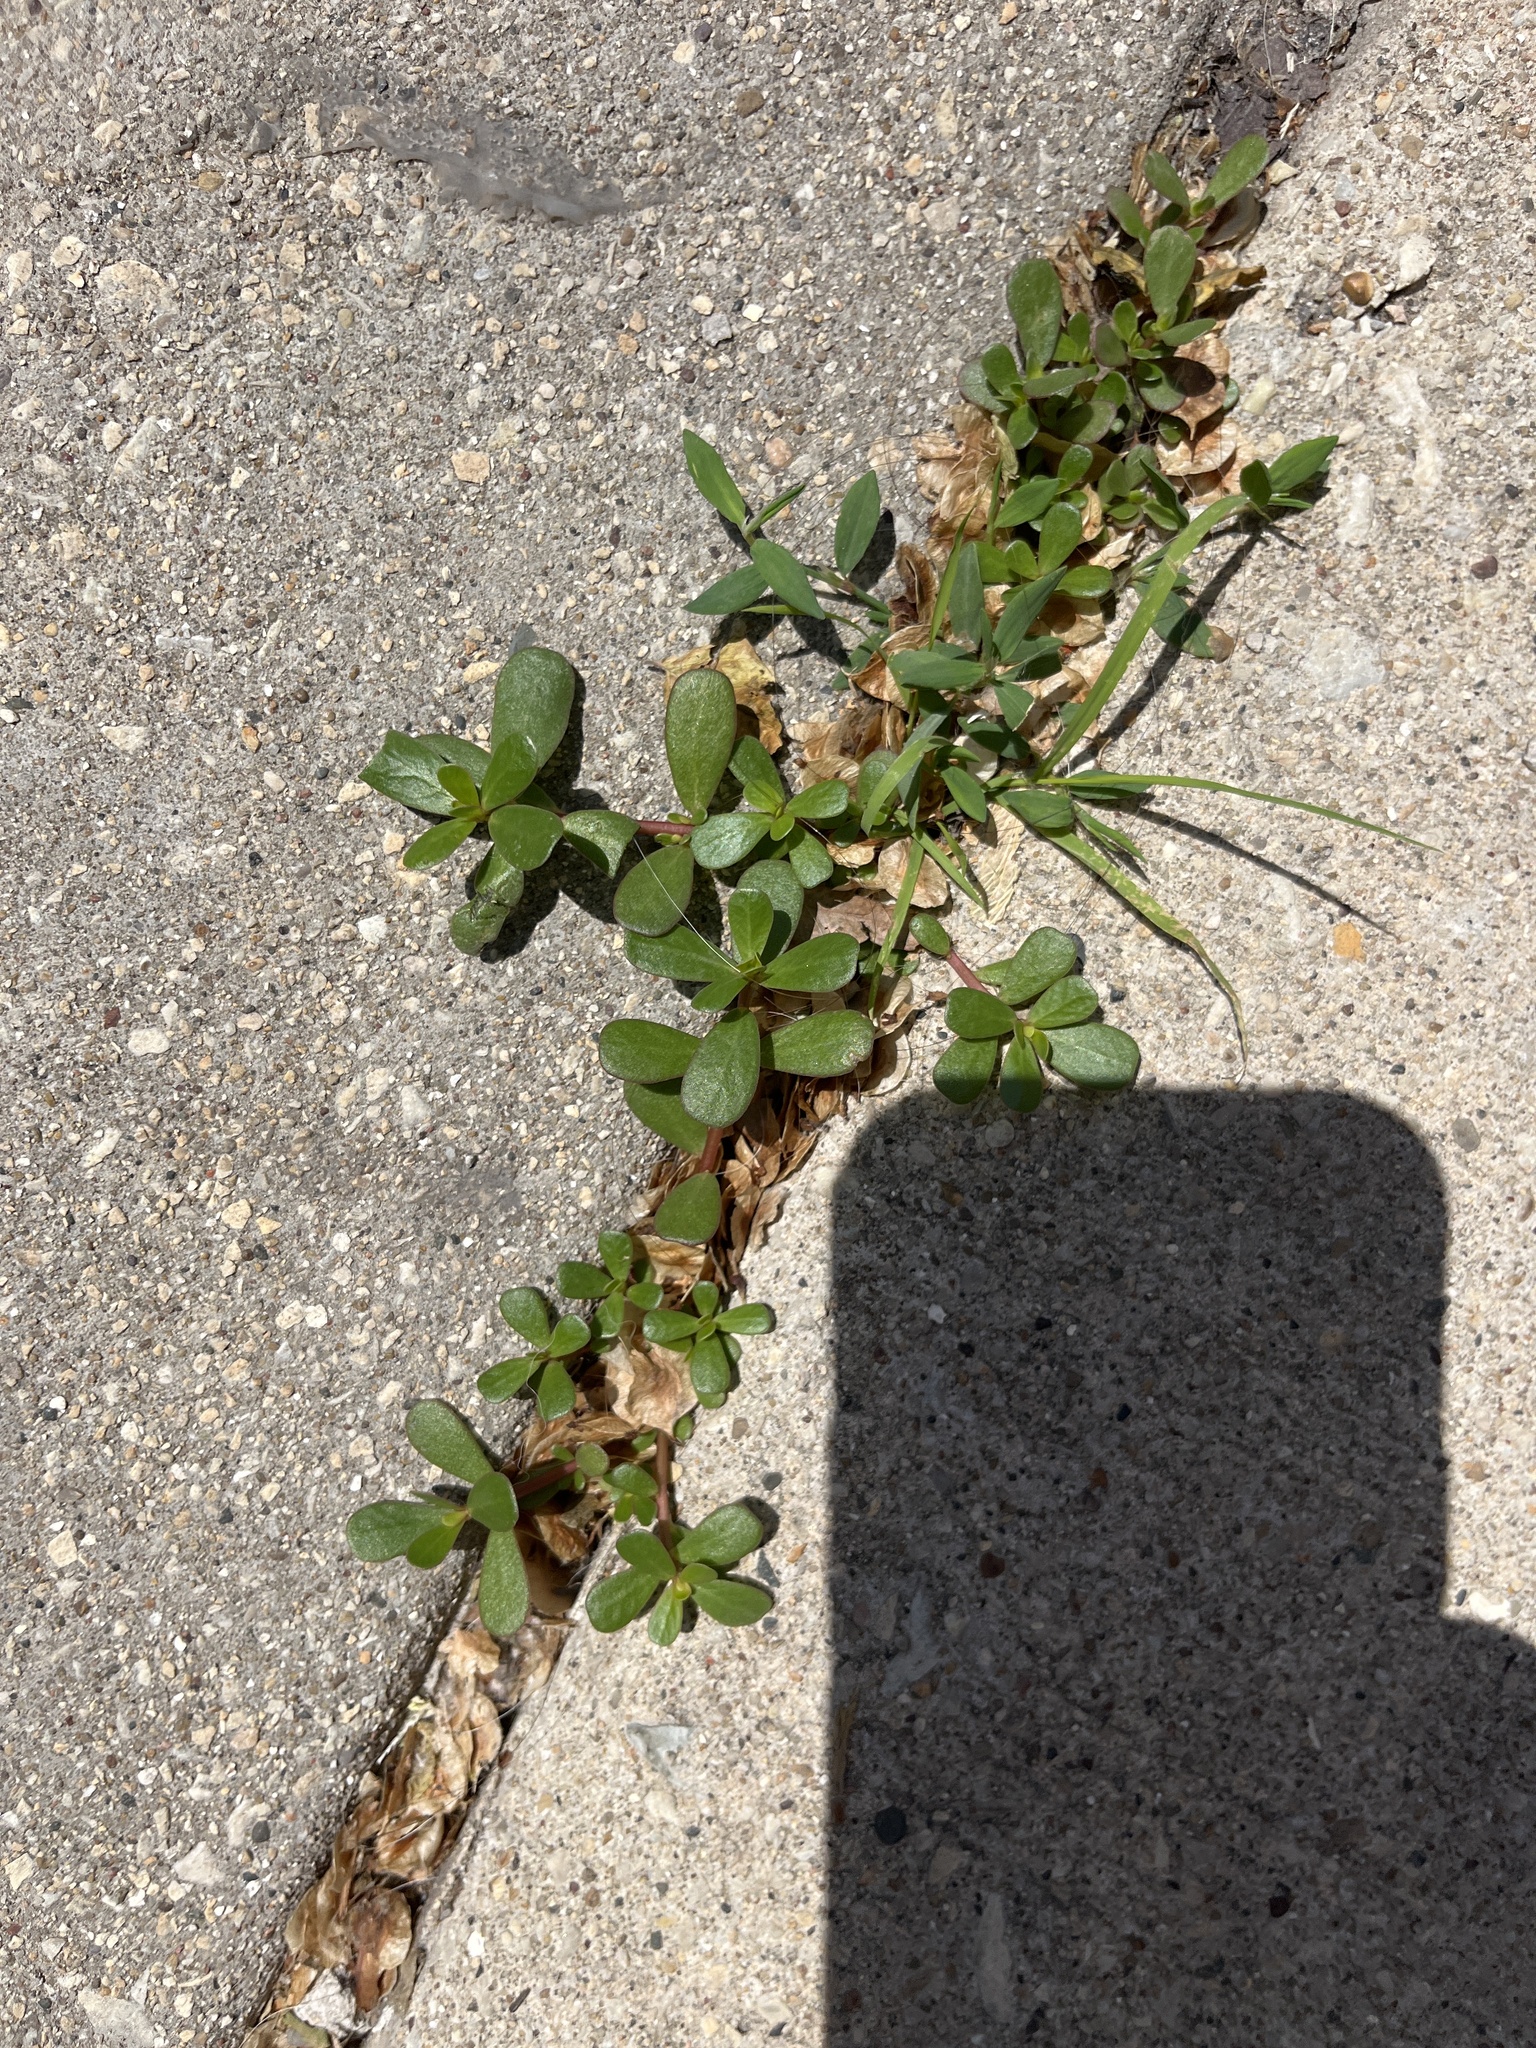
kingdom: Plantae
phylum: Tracheophyta
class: Magnoliopsida
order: Caryophyllales
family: Portulacaceae
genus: Portulaca
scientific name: Portulaca oleracea
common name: Common purslane
